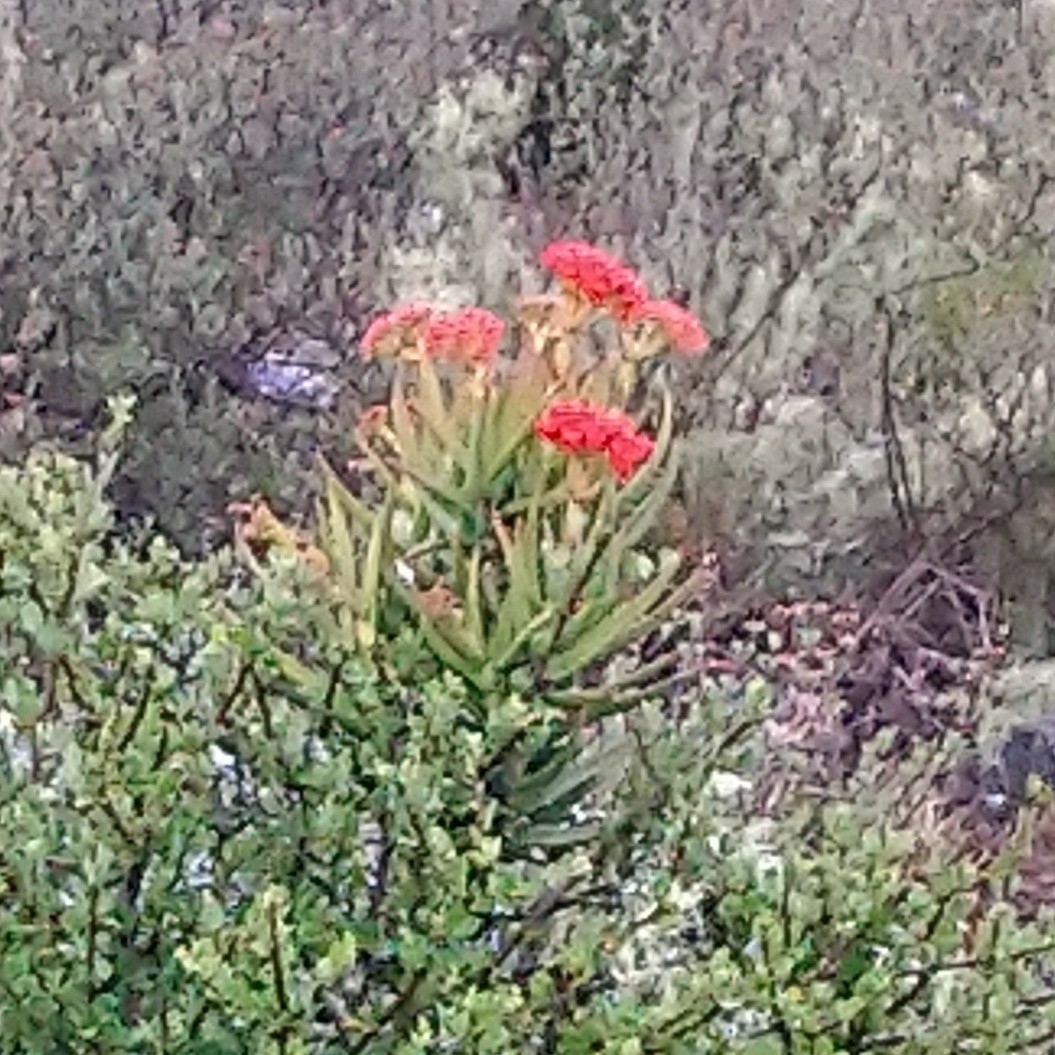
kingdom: Plantae
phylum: Tracheophyta
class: Magnoliopsida
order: Saxifragales
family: Crassulaceae
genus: Crassula
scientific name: Crassula perfoliata
